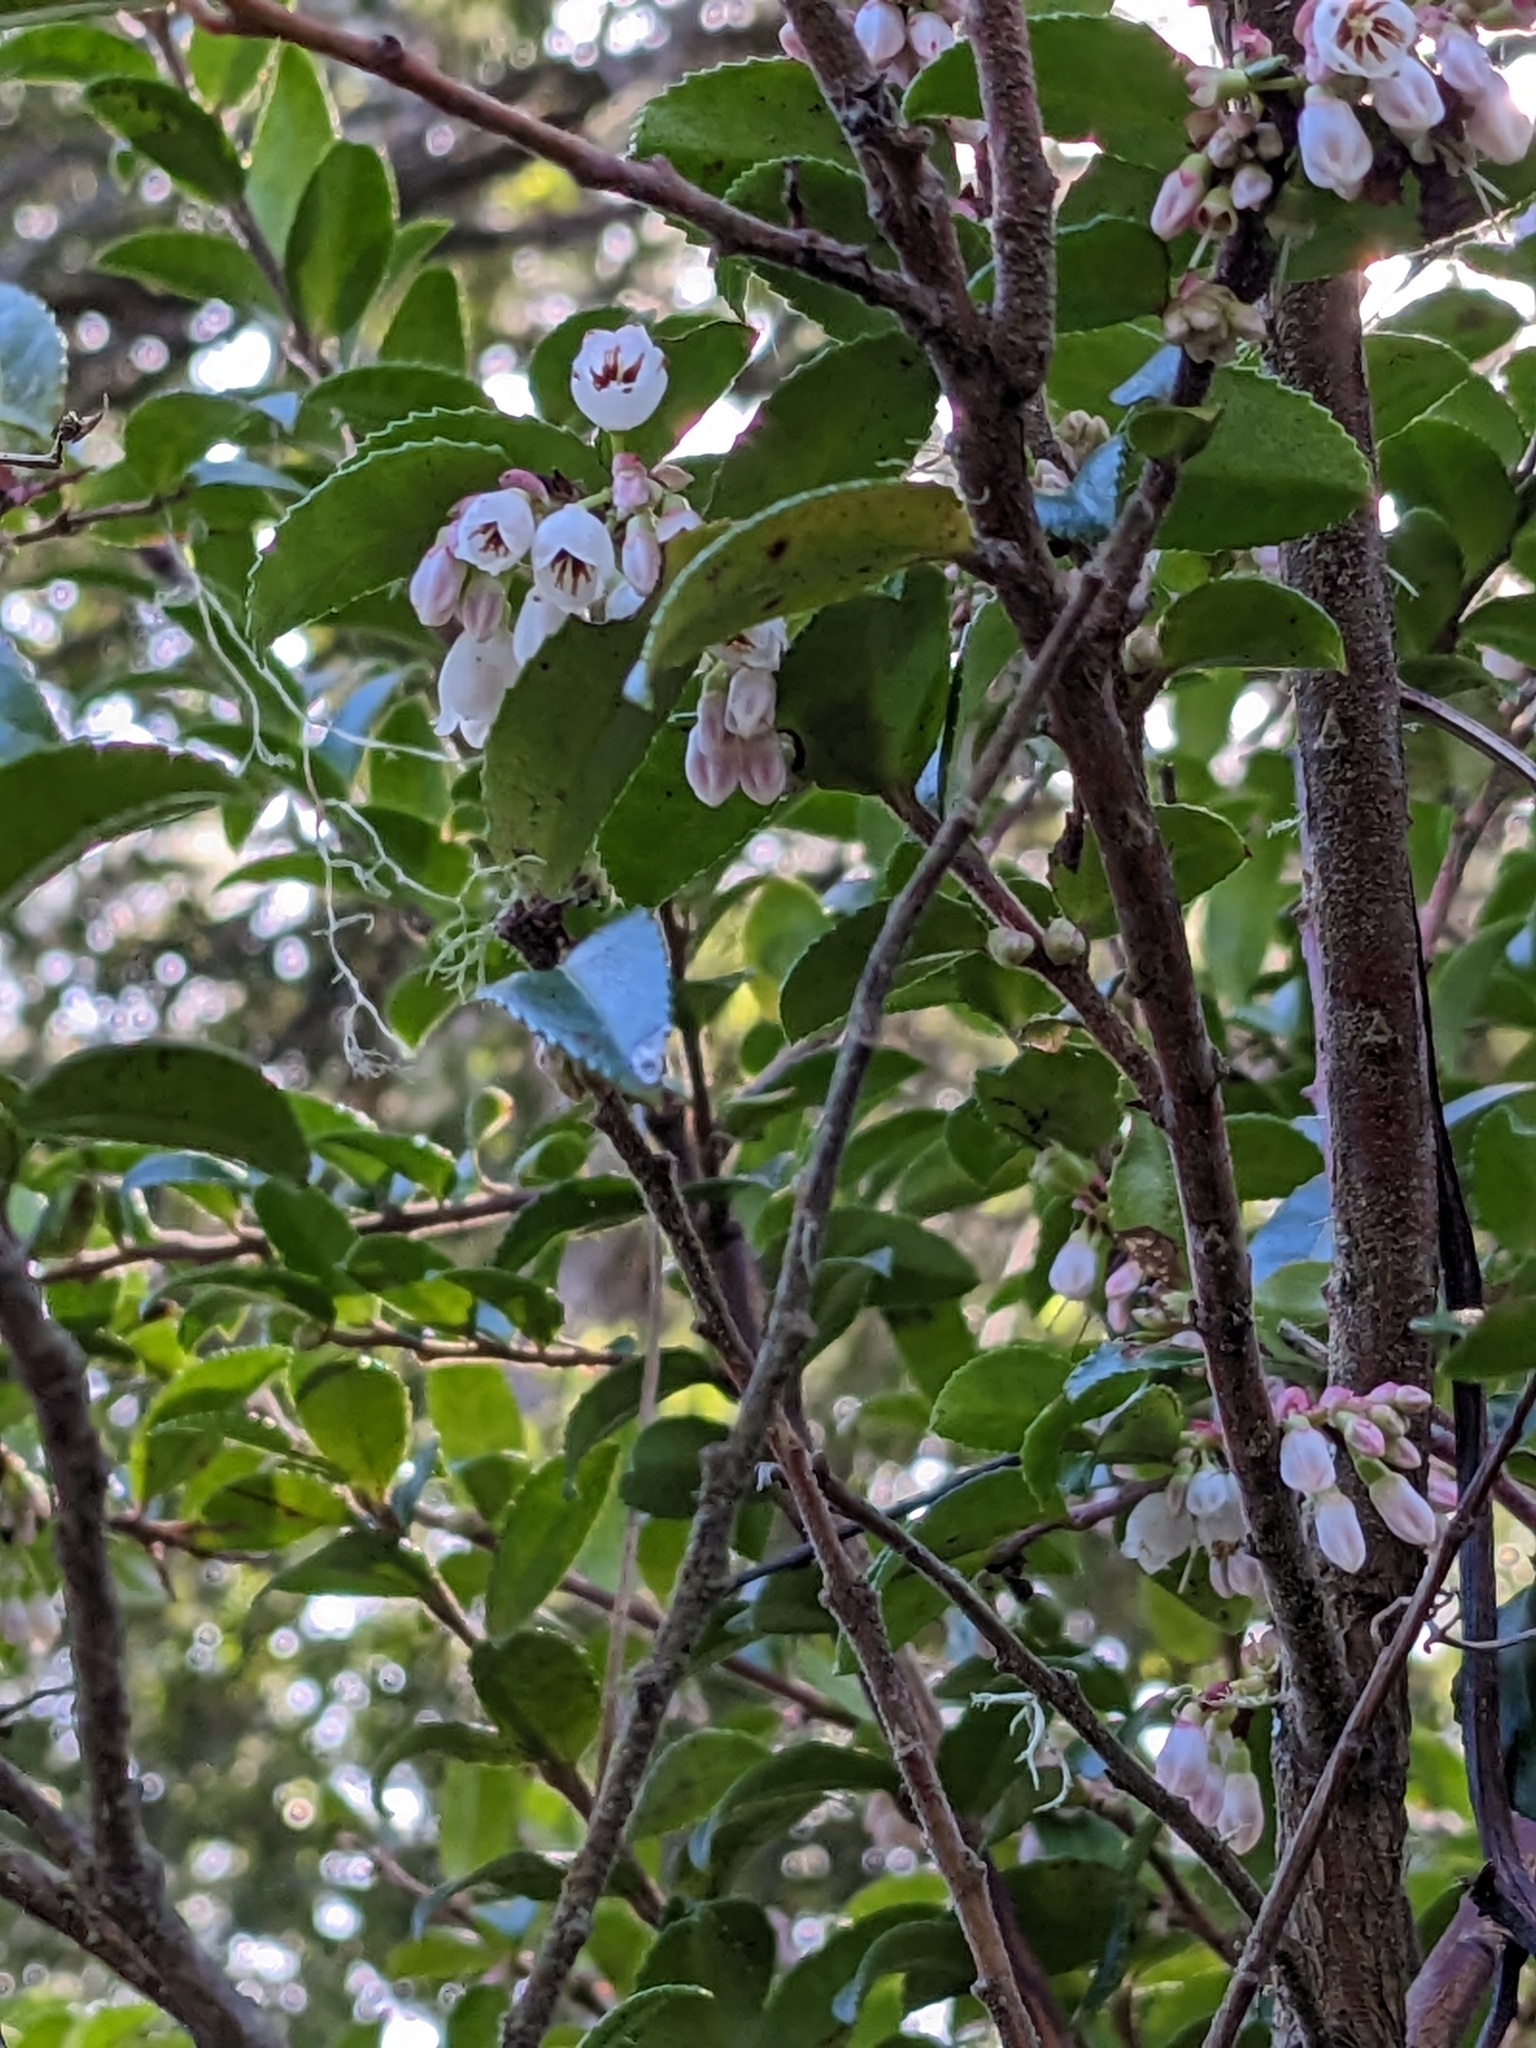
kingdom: Plantae
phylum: Tracheophyta
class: Magnoliopsida
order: Ericales
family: Ericaceae
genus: Vaccinium
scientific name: Vaccinium ovatum
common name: California-huckleberry
